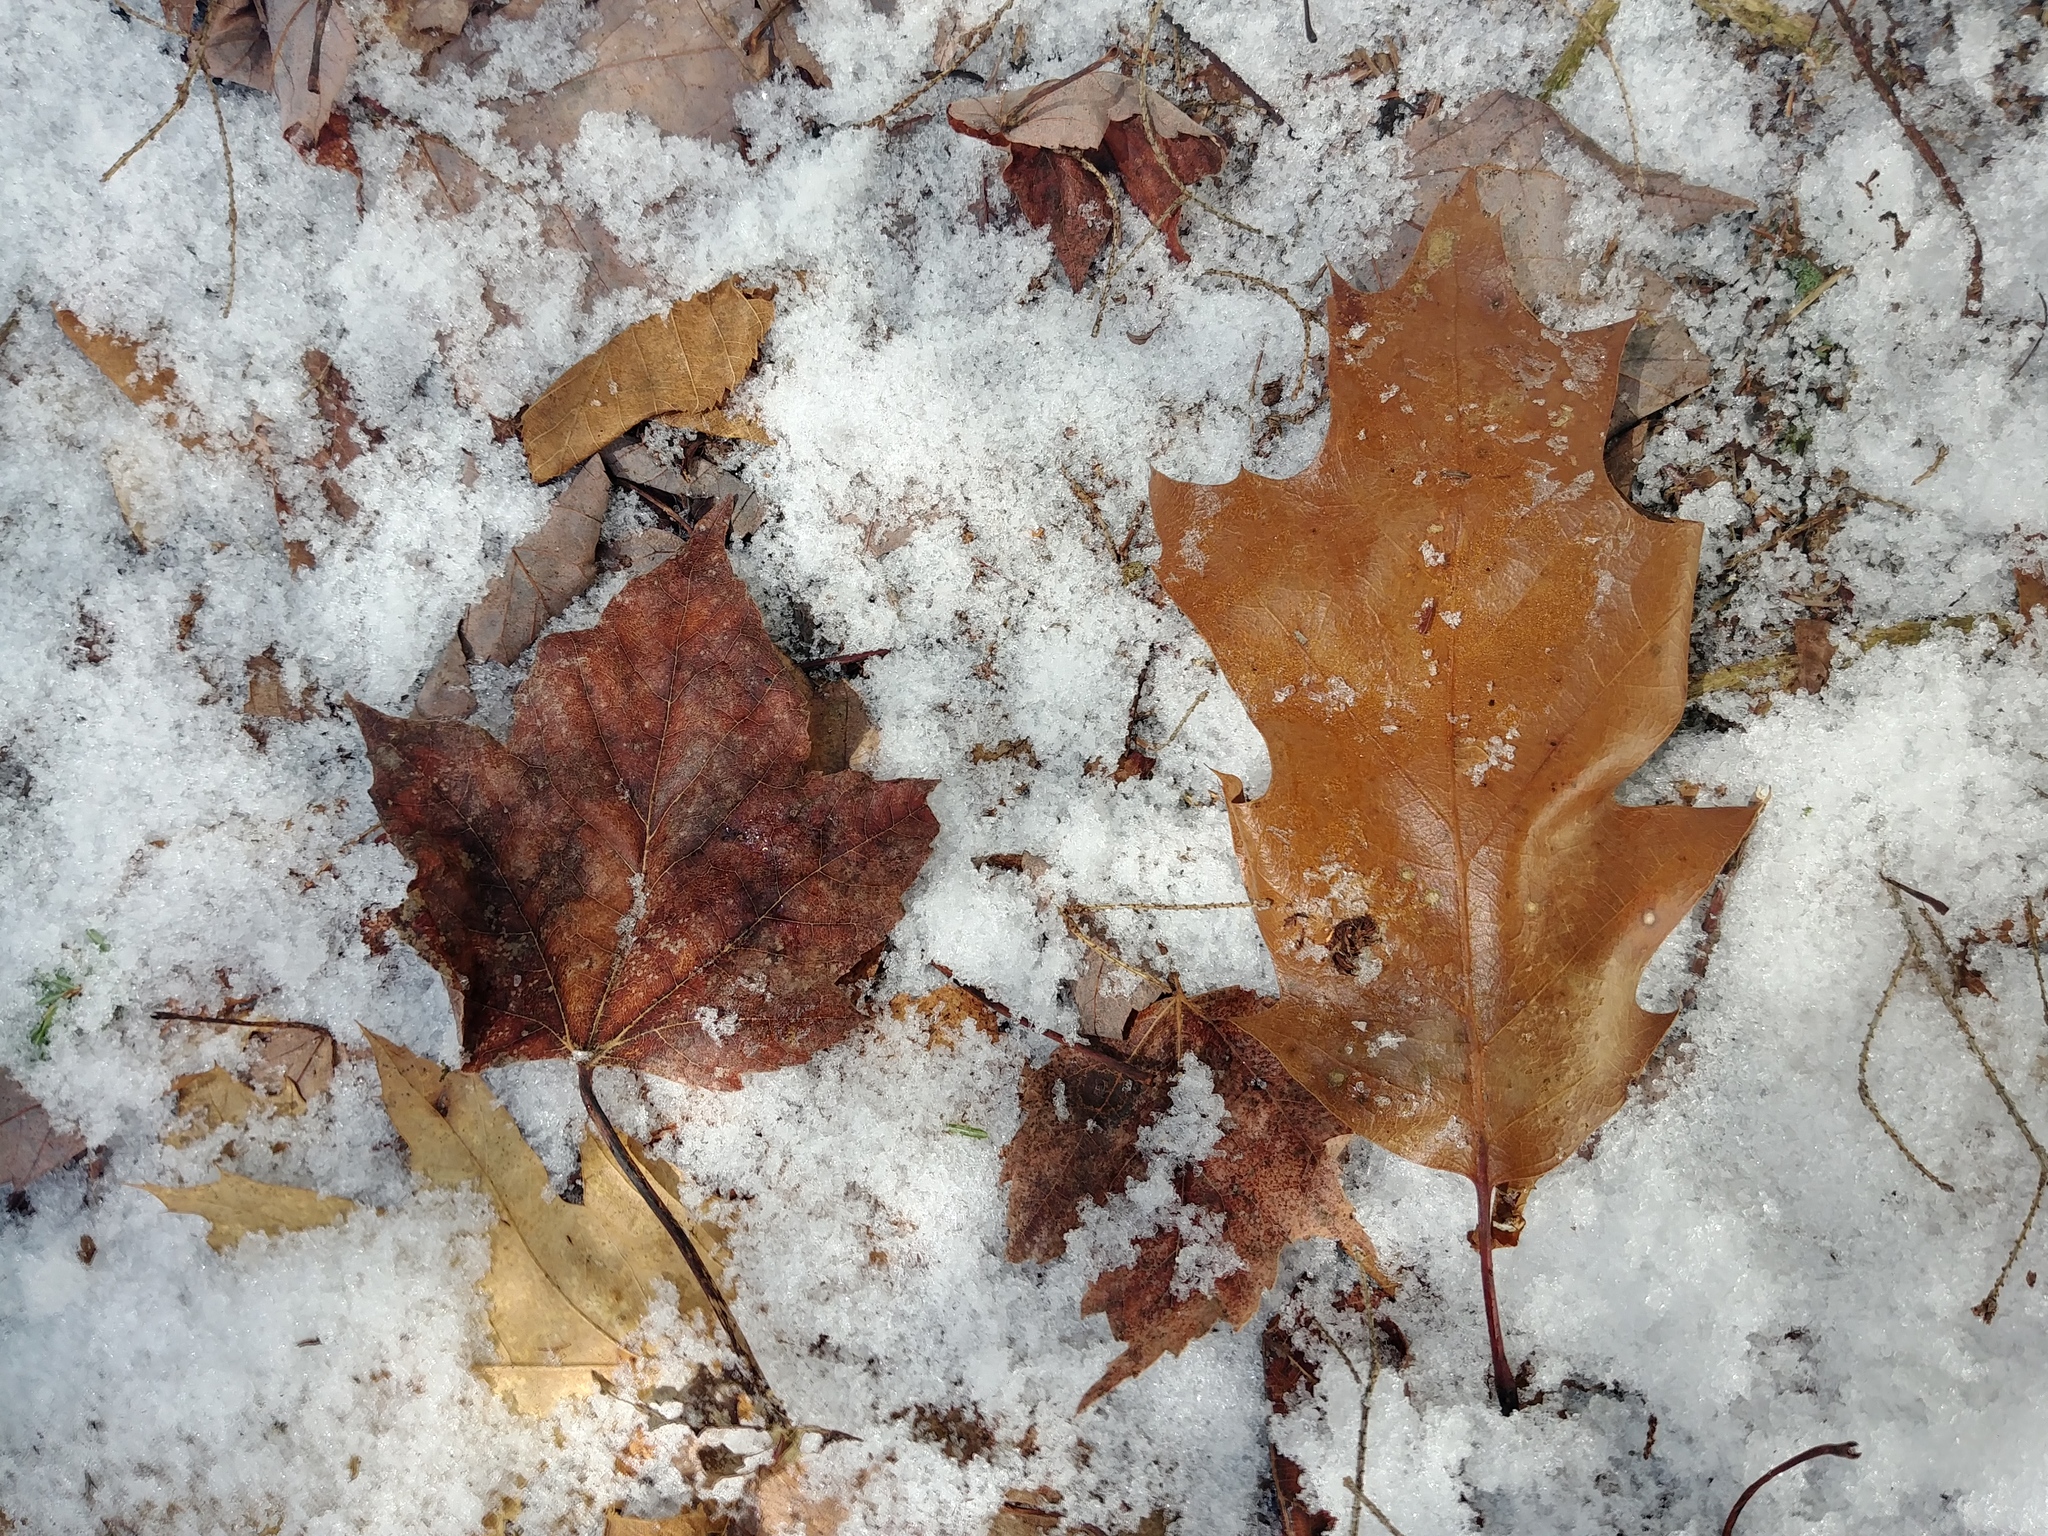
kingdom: Plantae
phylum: Tracheophyta
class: Magnoliopsida
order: Fagales
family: Fagaceae
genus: Quercus
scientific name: Quercus rubra
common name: Red oak
